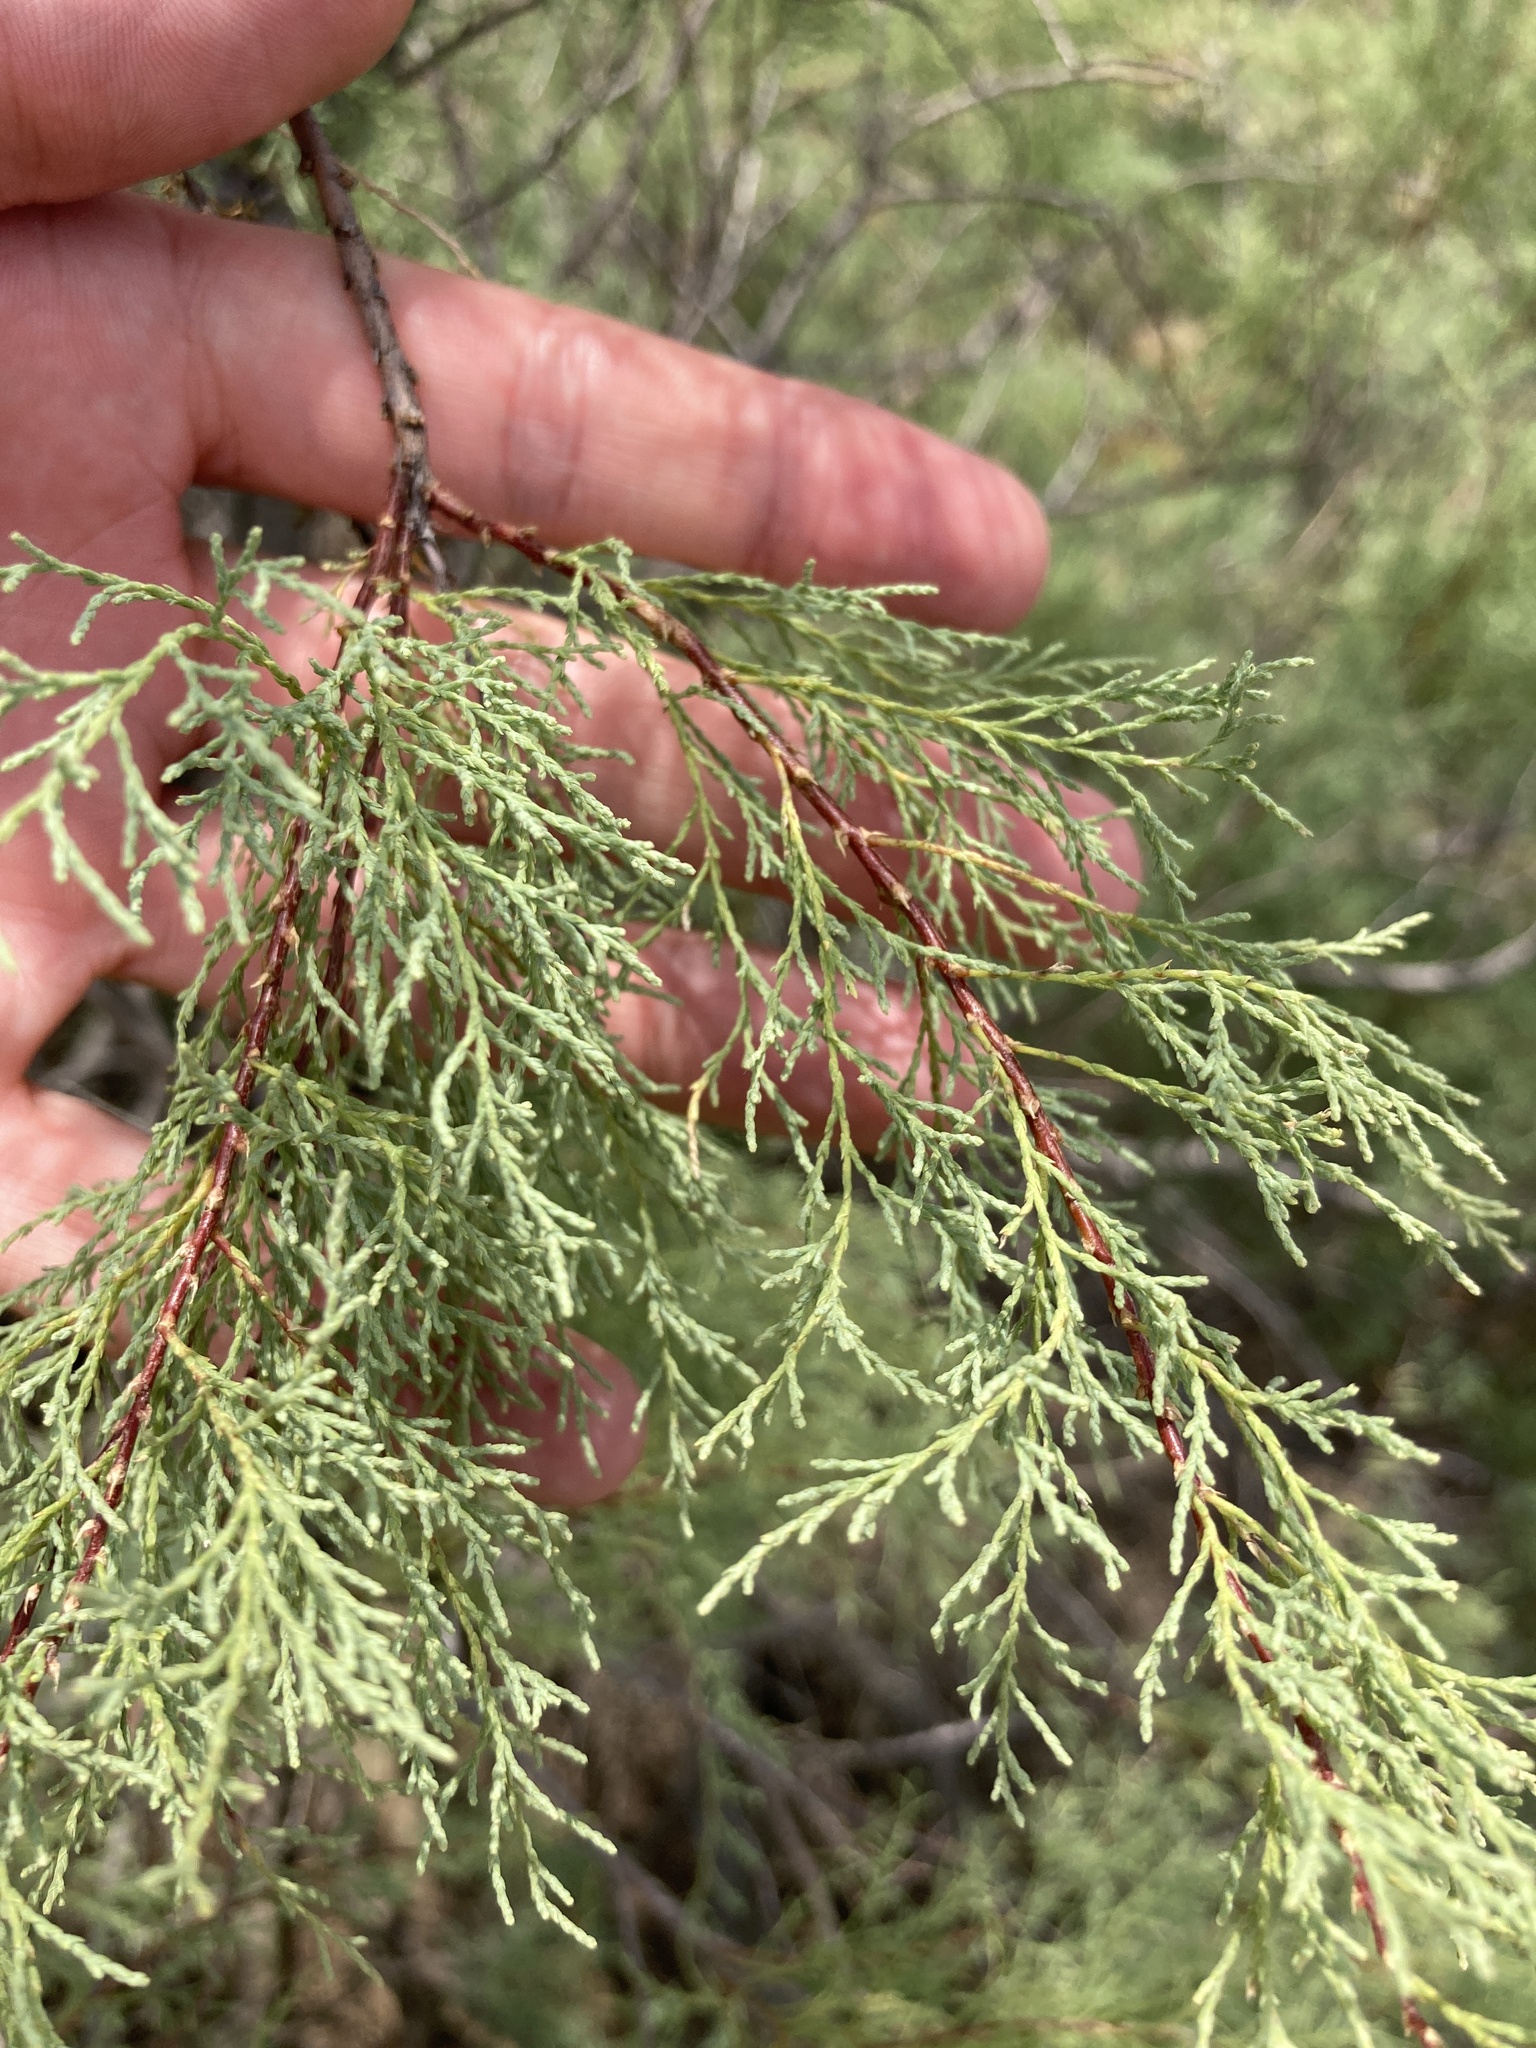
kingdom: Plantae
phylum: Tracheophyta
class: Magnoliopsida
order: Caryophyllales
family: Tamaricaceae
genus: Tamarix
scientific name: Tamarix ramosissima
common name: Pink tamarisk
